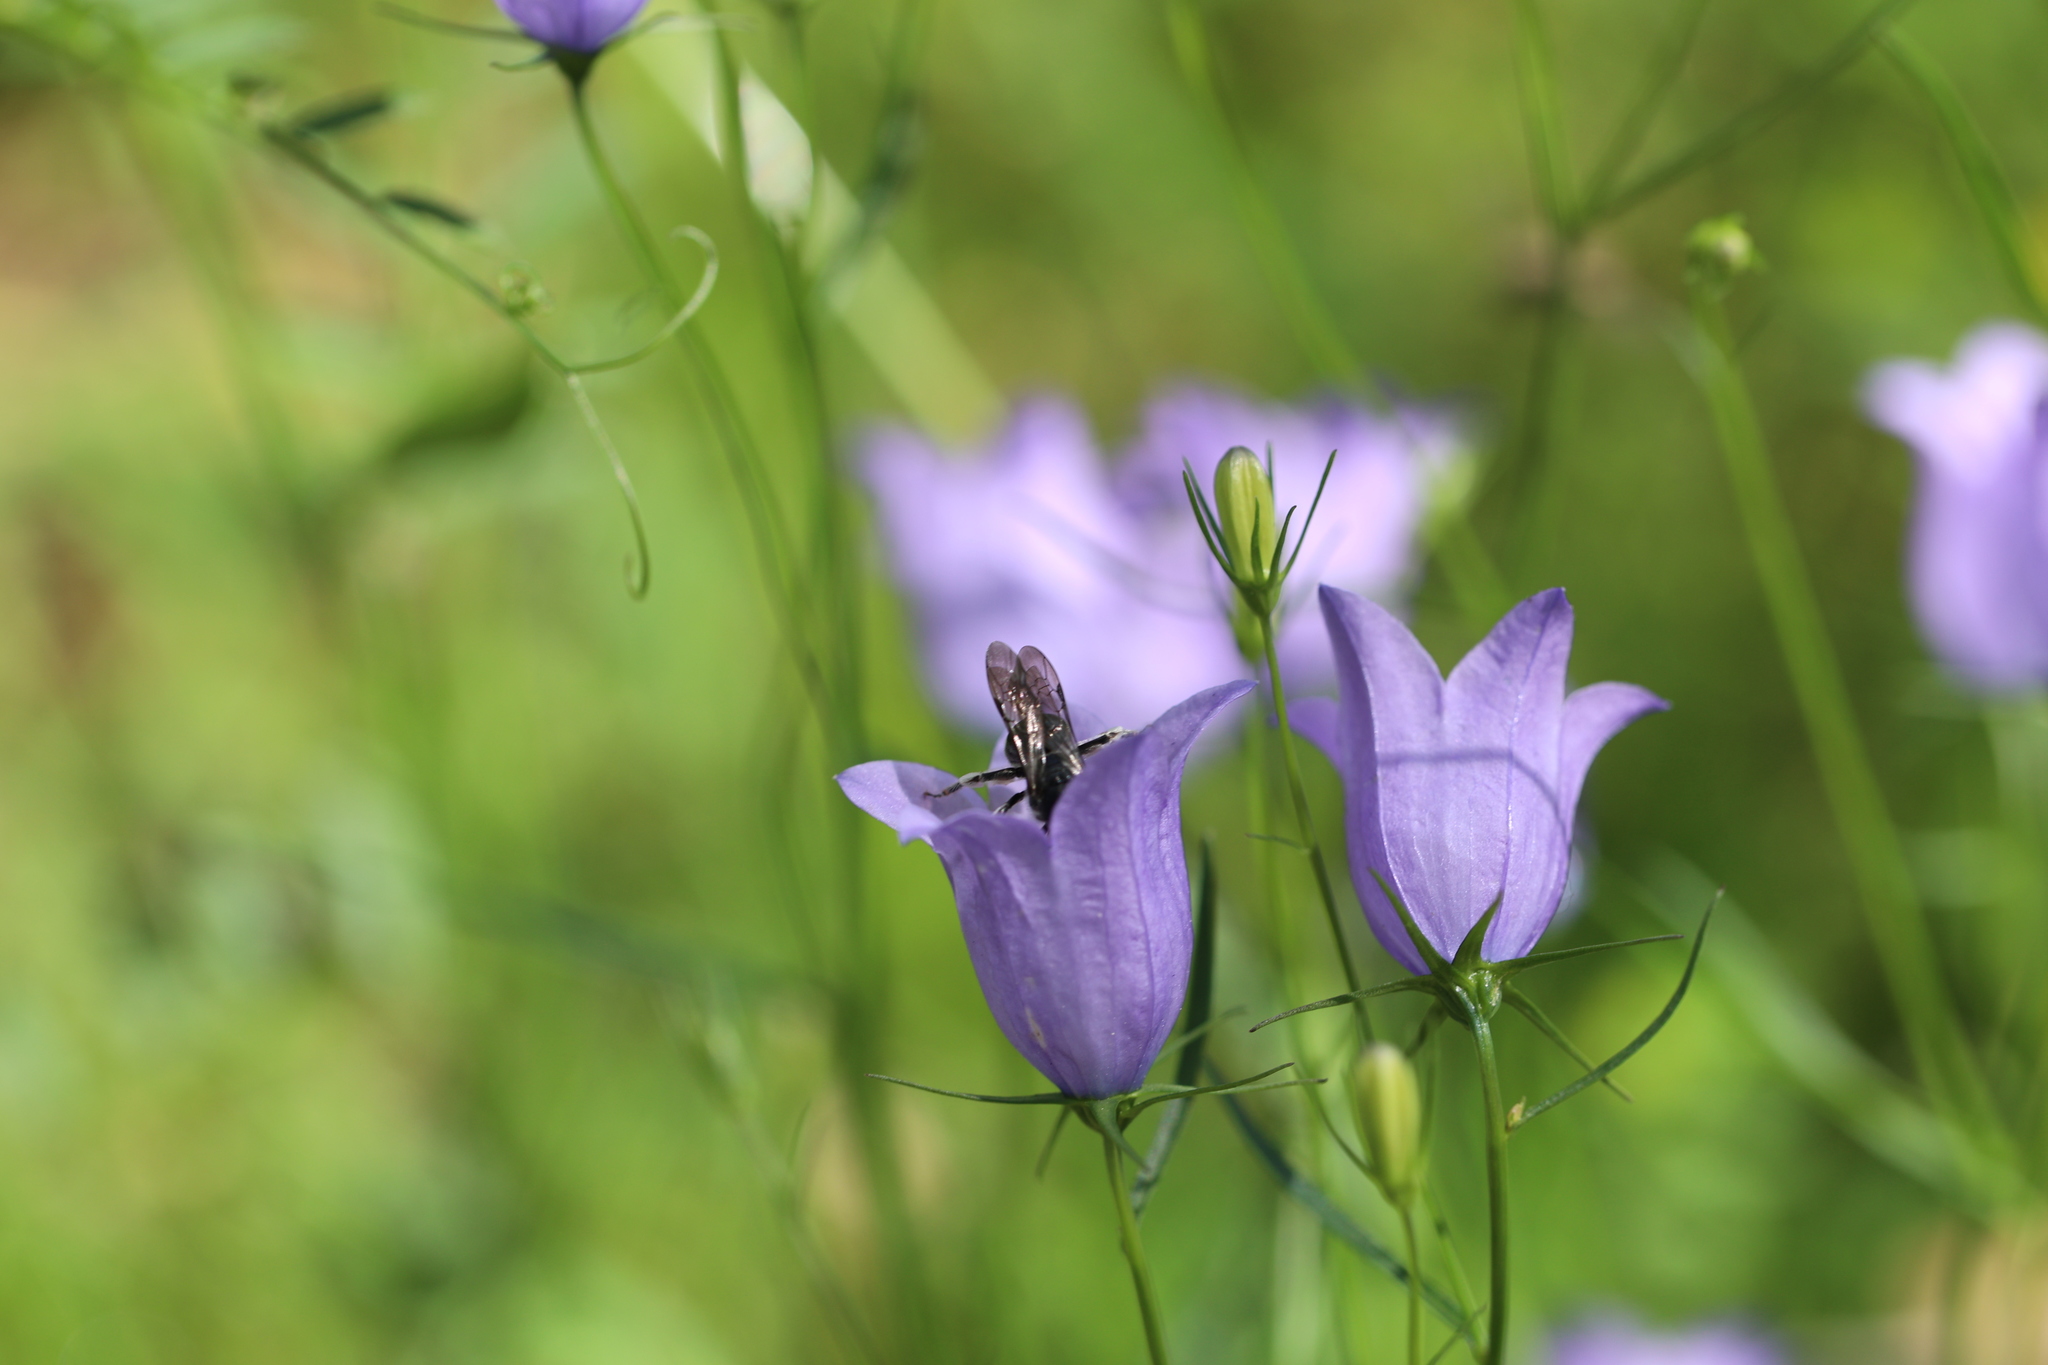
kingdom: Plantae
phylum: Tracheophyta
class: Magnoliopsida
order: Asterales
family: Campanulaceae
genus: Campanula
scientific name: Campanula rotundifolia
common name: Harebell
